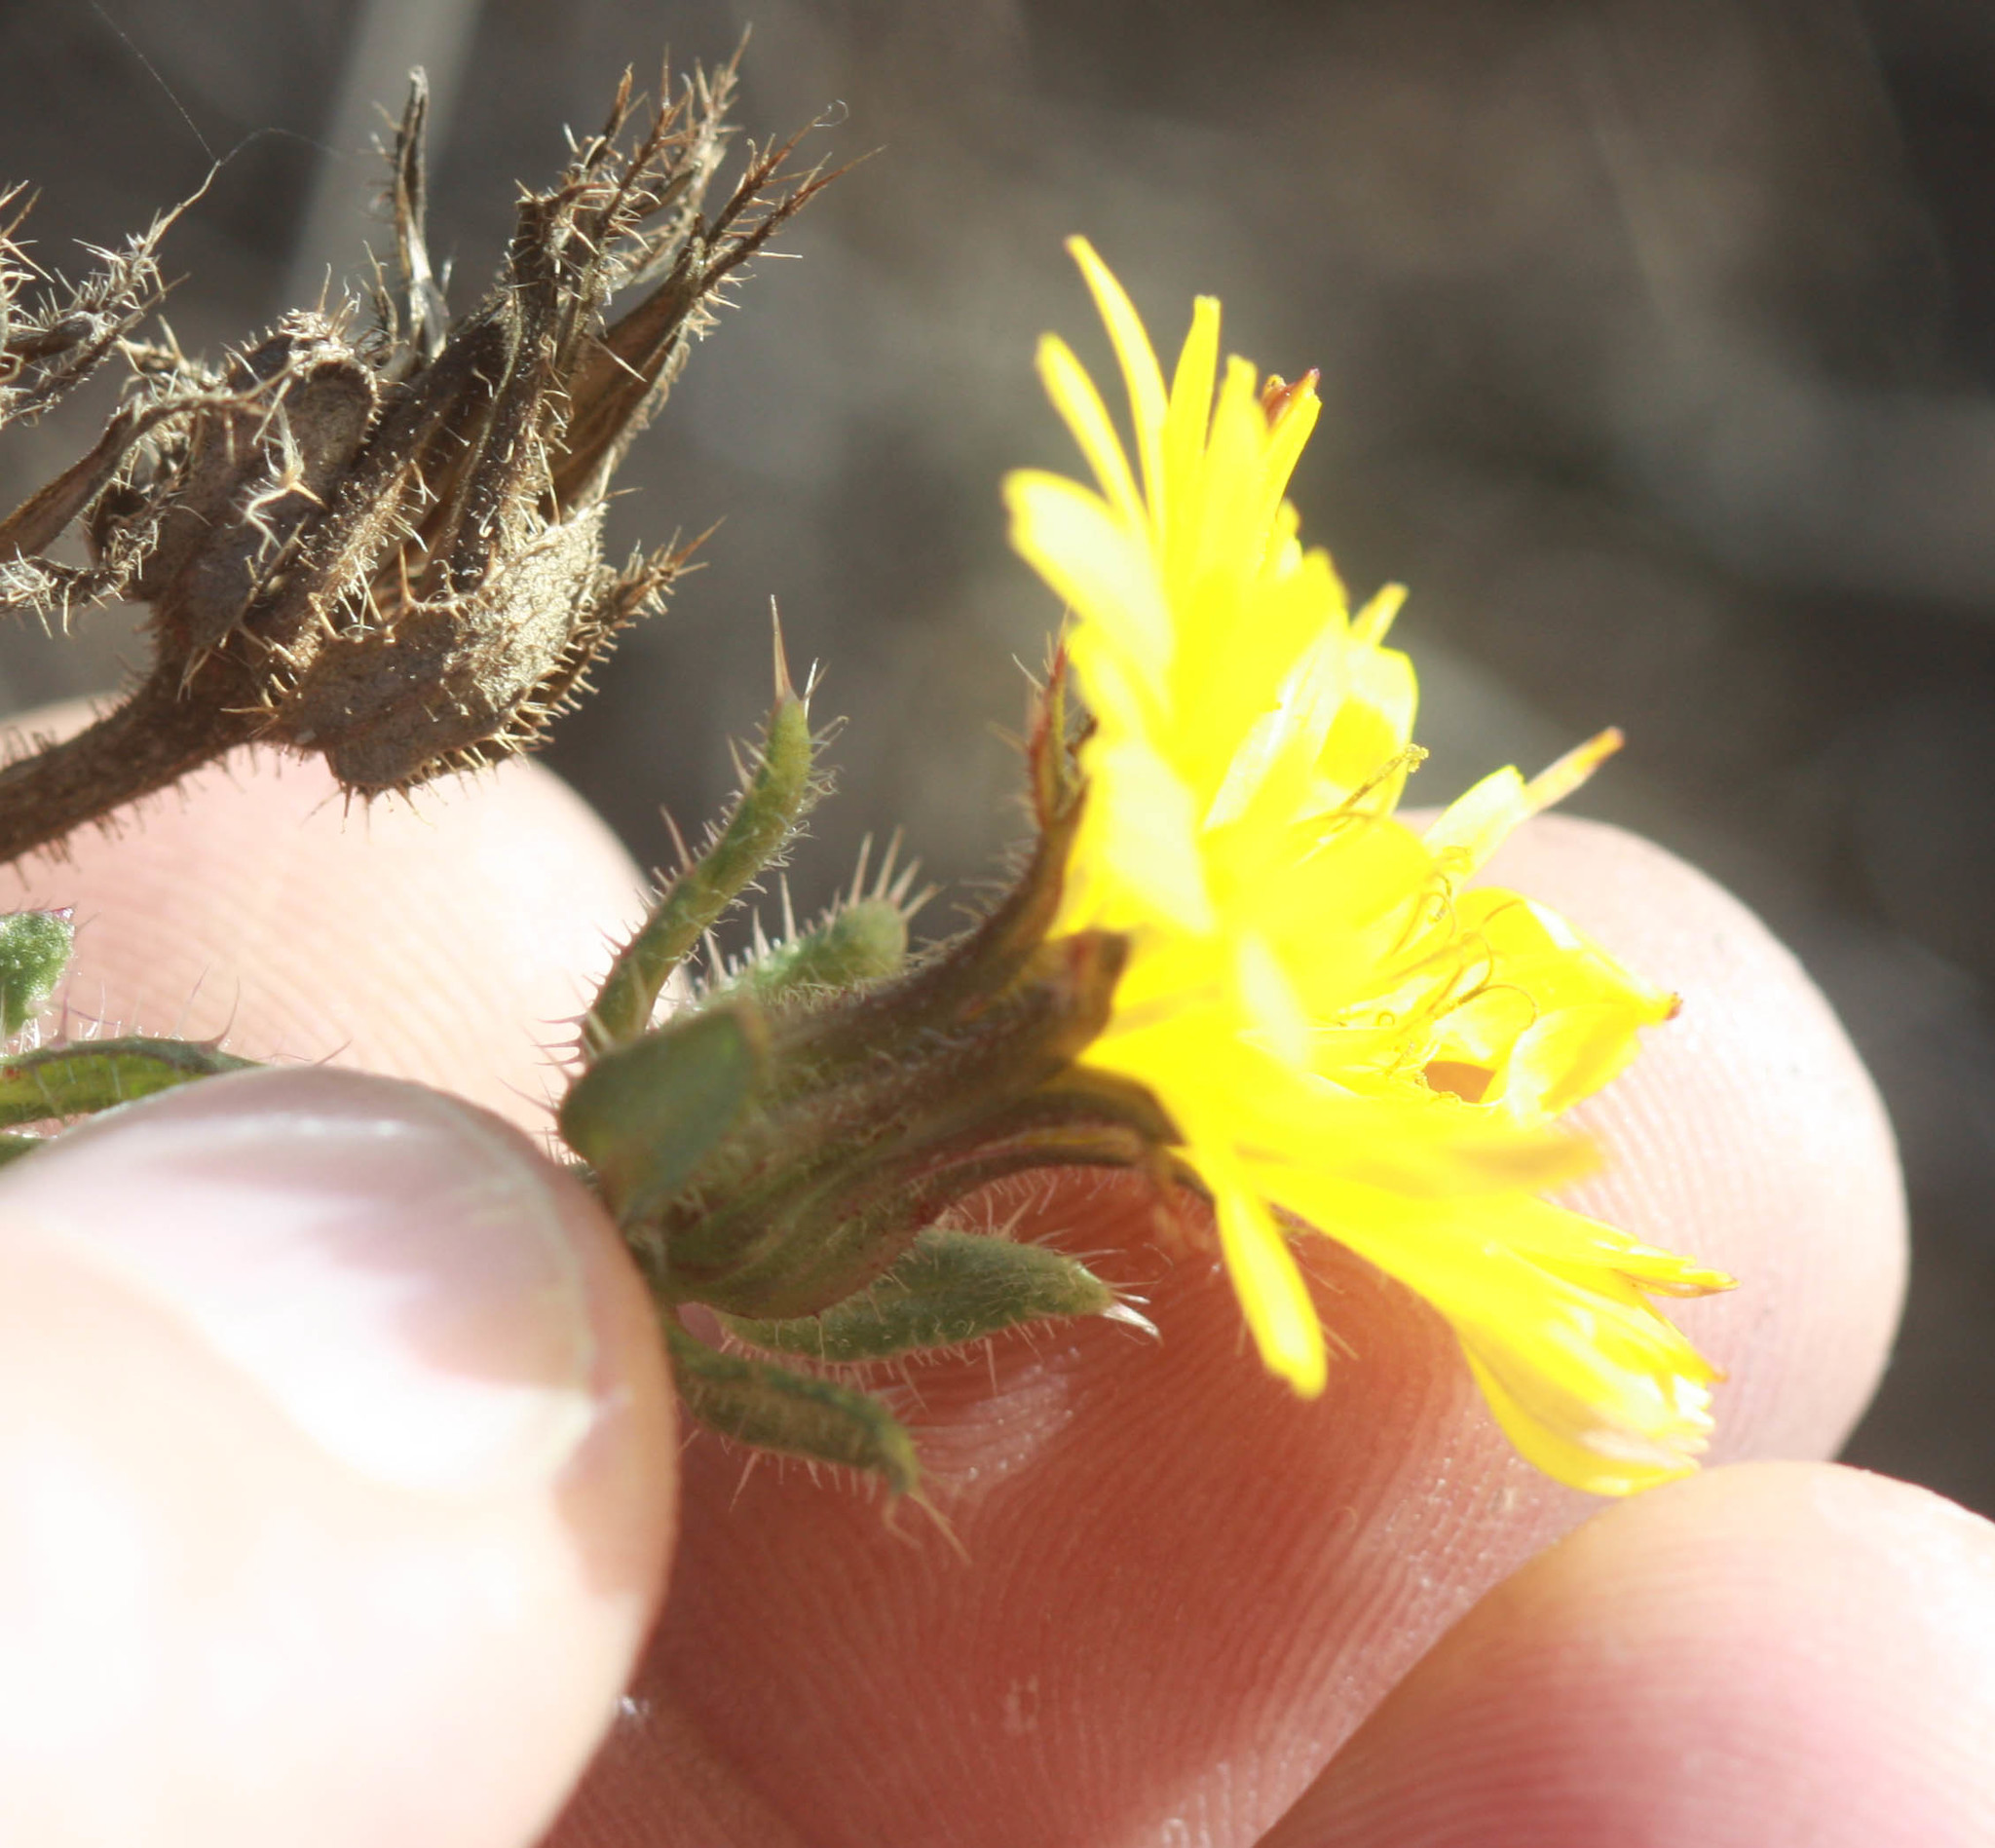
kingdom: Plantae
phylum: Tracheophyta
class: Magnoliopsida
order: Asterales
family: Asteraceae
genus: Helminthotheca
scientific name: Helminthotheca echioides
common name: Ox-tongue
